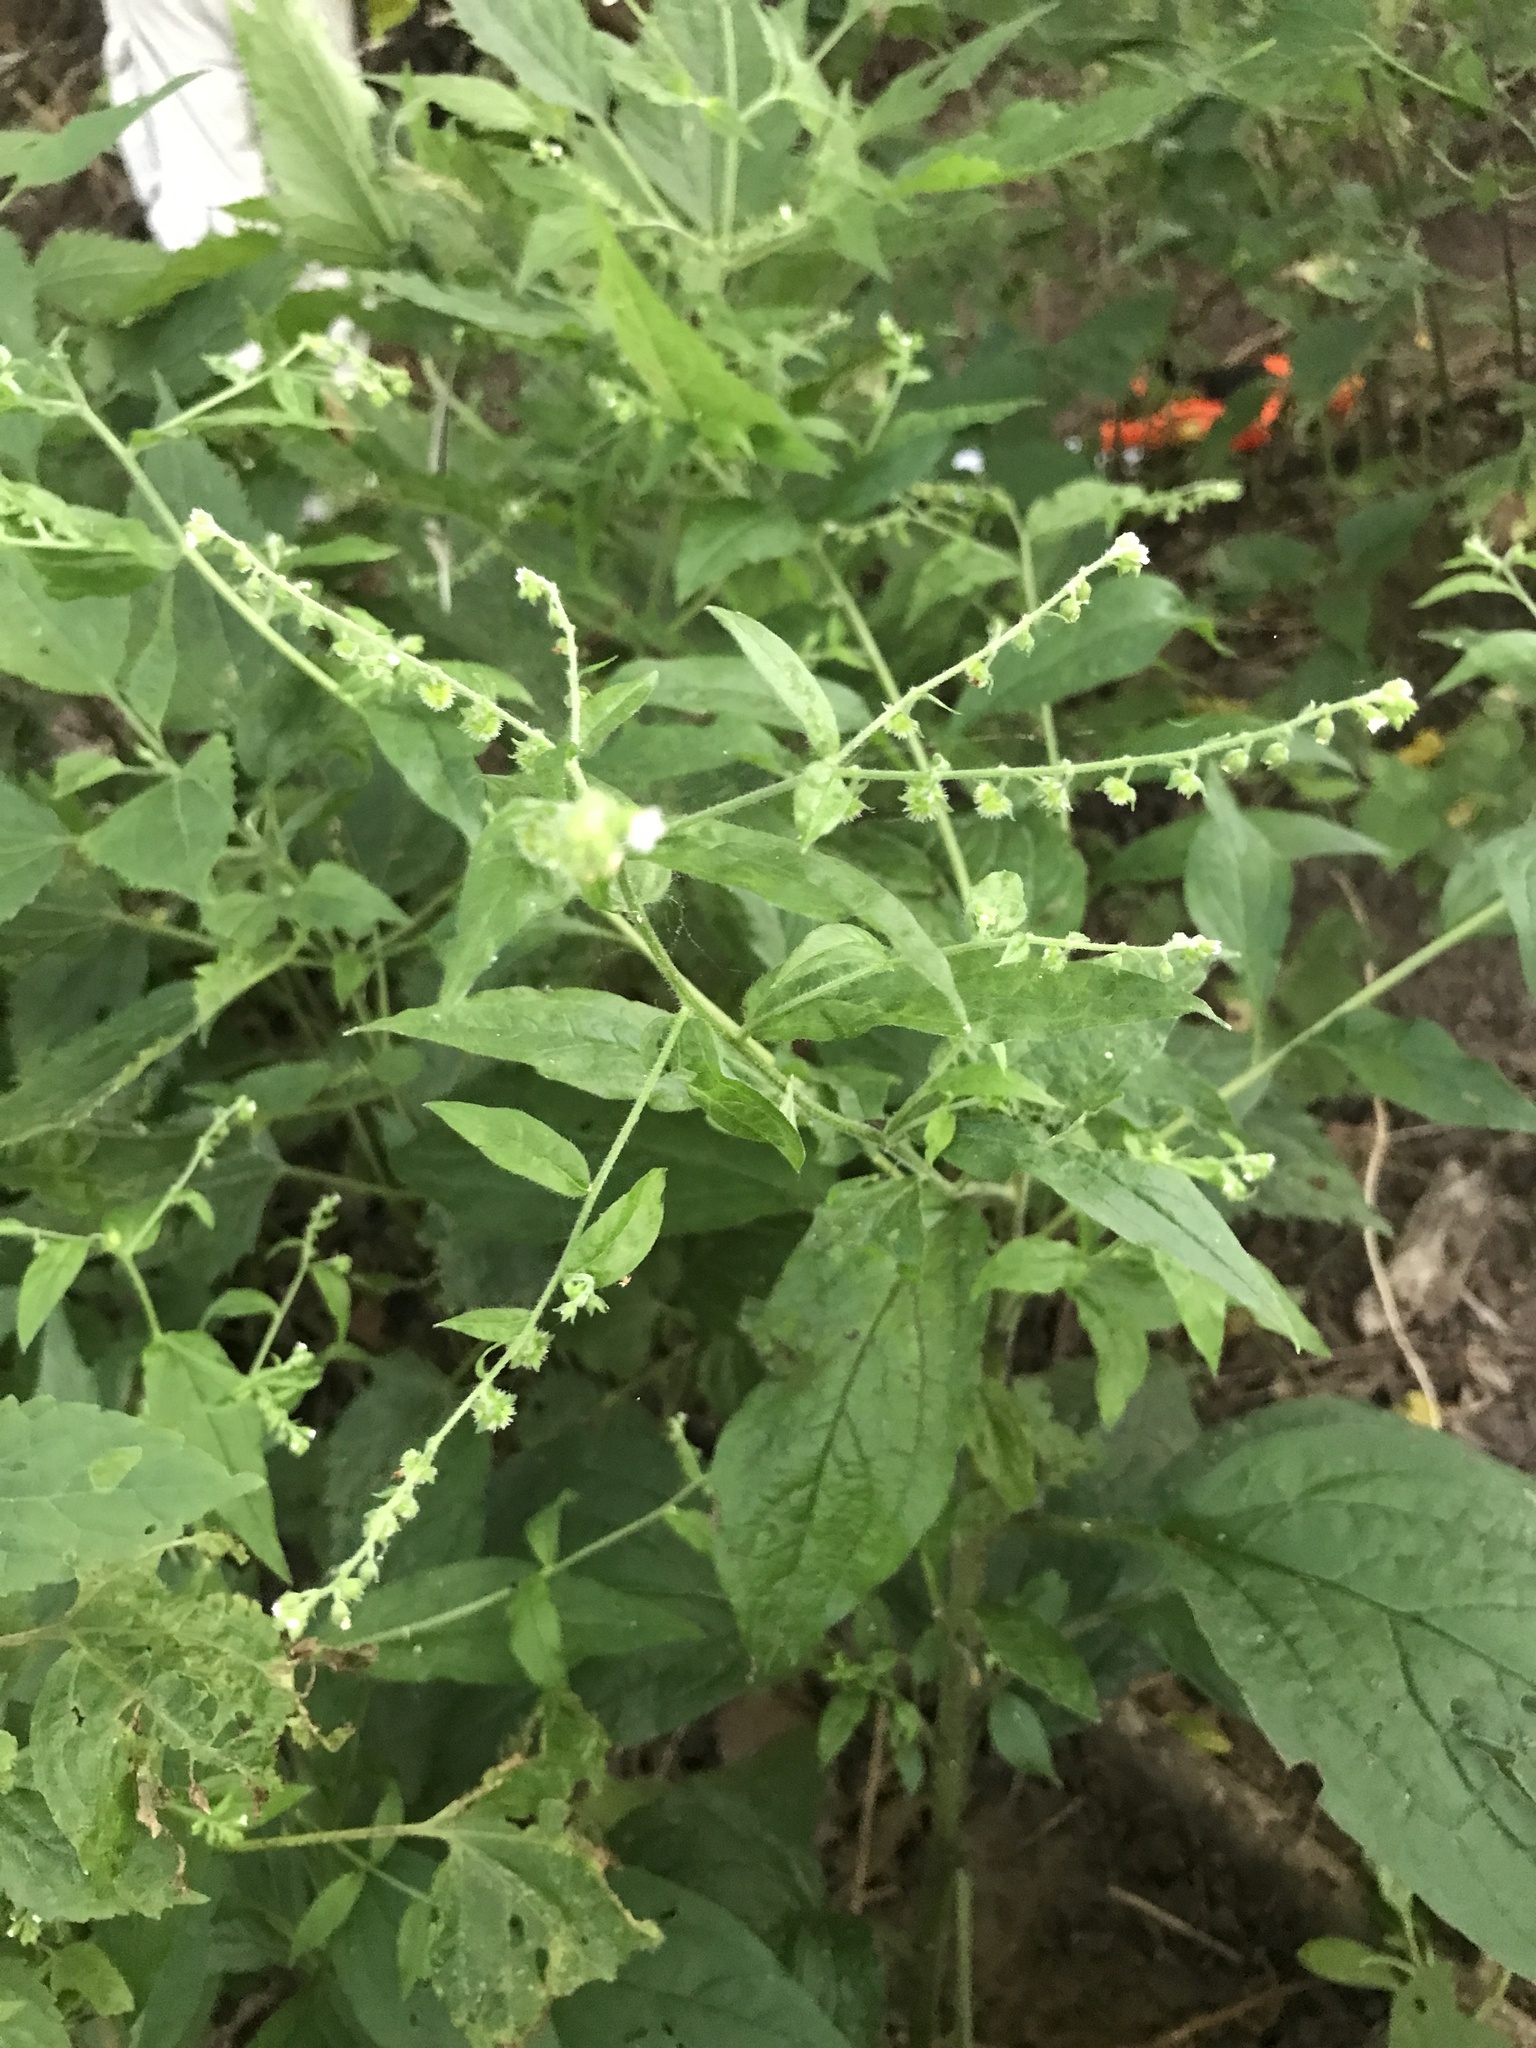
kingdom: Plantae
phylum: Tracheophyta
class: Magnoliopsida
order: Boraginales
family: Boraginaceae
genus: Hackelia
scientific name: Hackelia virginiana
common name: Beggar's-lice
